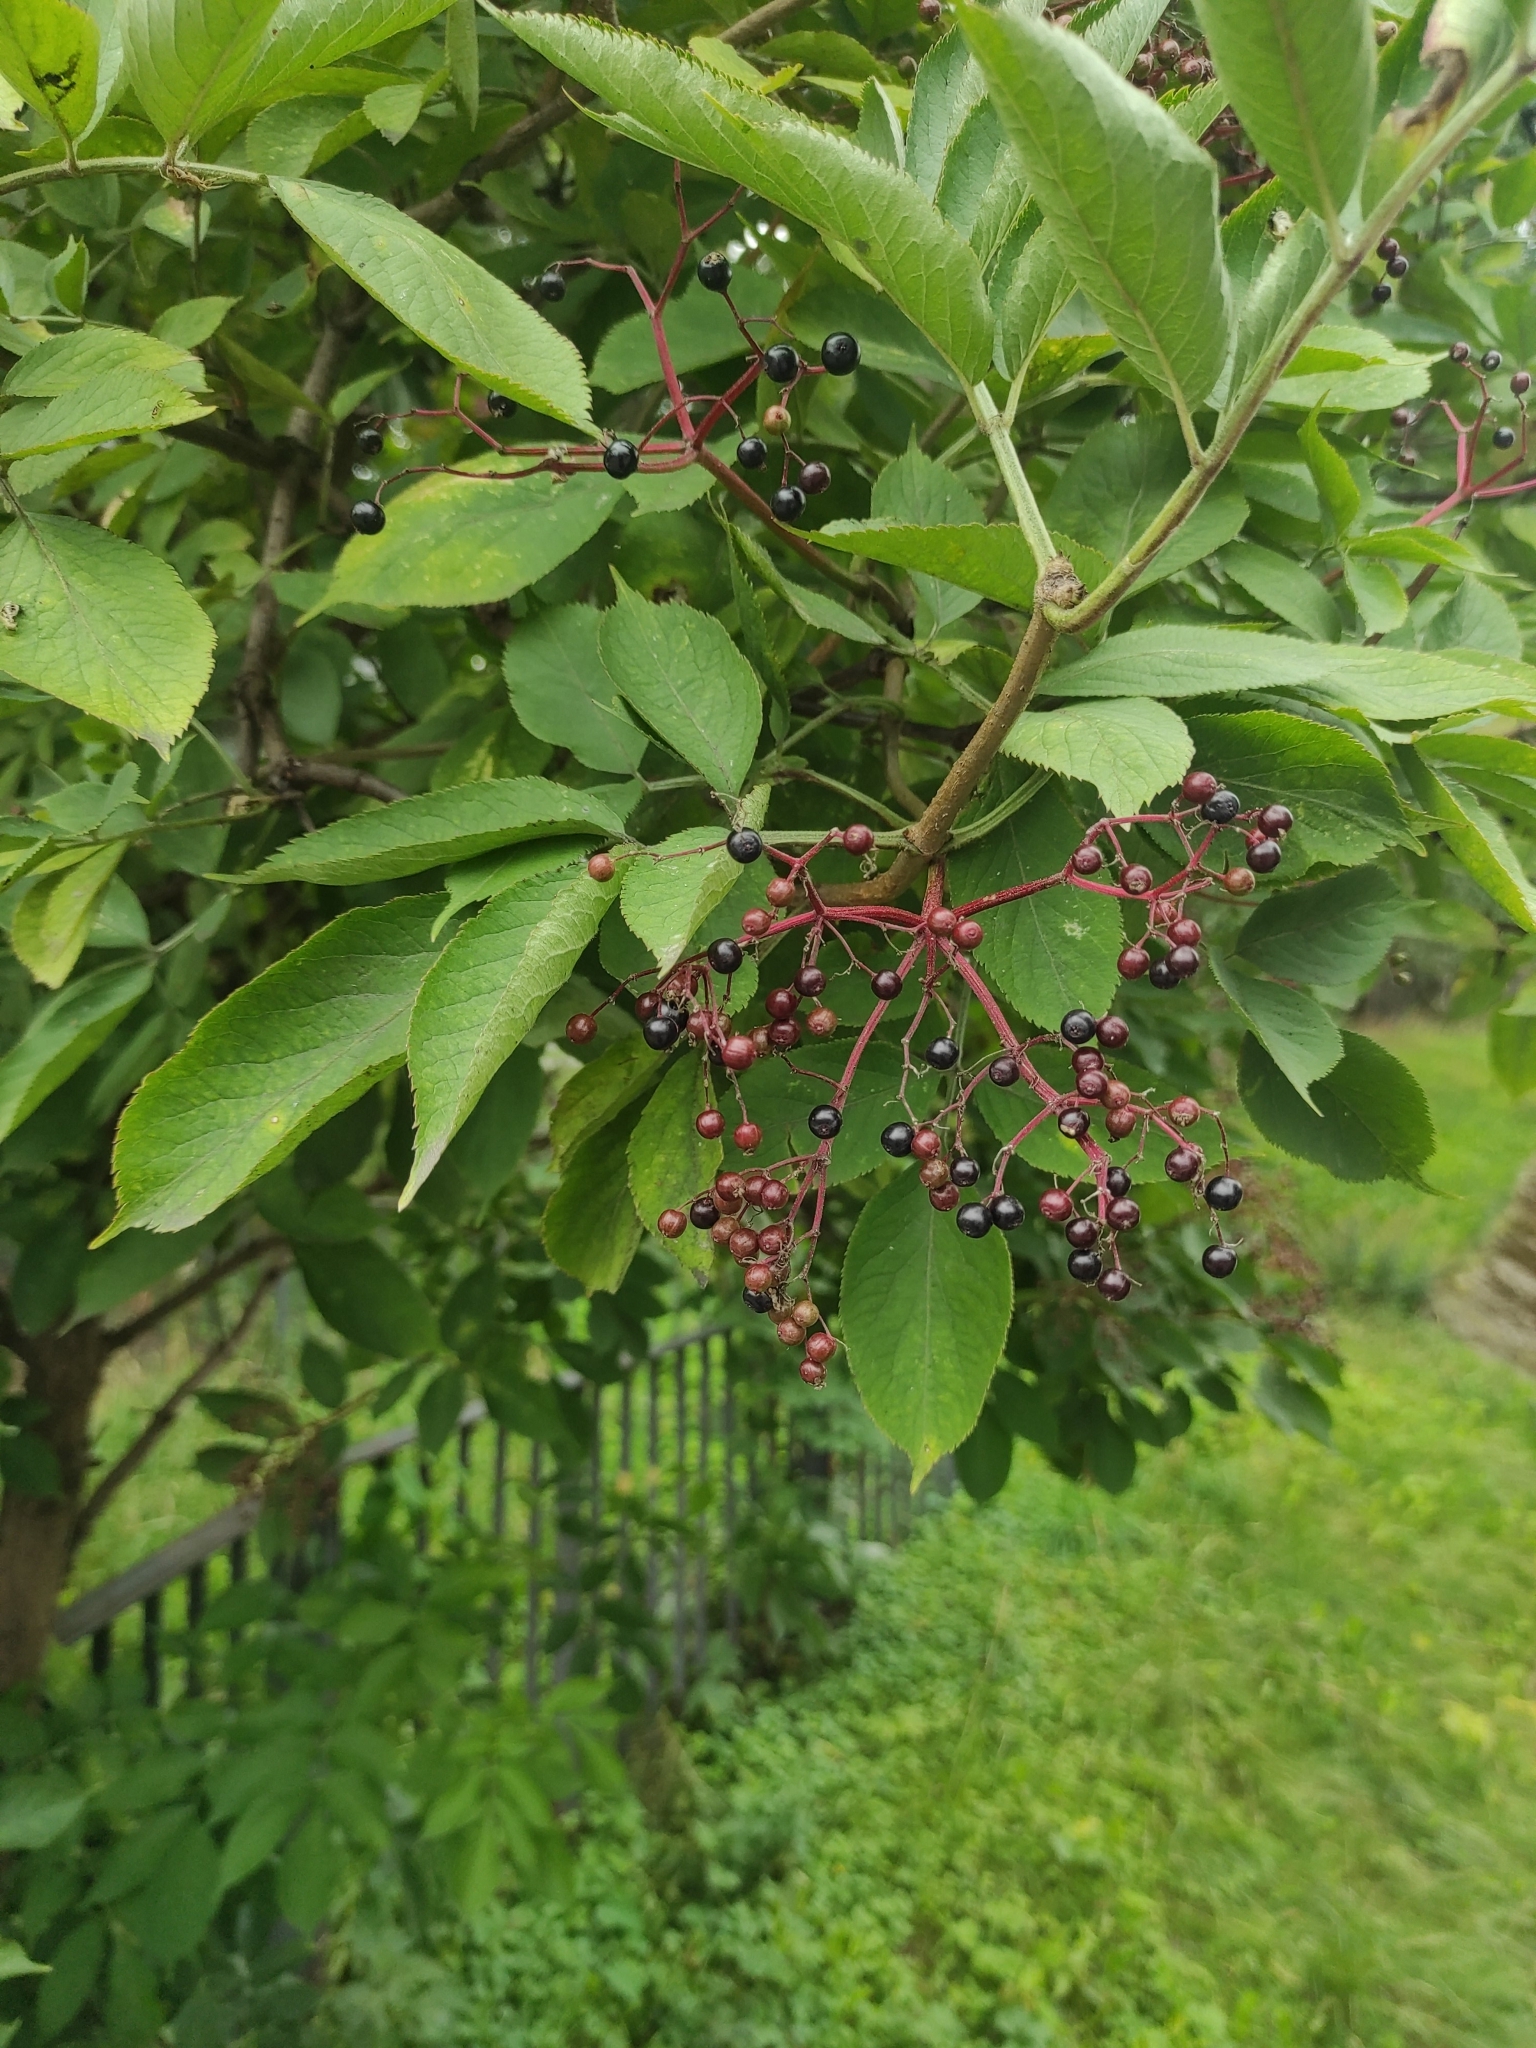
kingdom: Plantae
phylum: Tracheophyta
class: Magnoliopsida
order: Dipsacales
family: Viburnaceae
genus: Sambucus
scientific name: Sambucus nigra
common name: Elder
